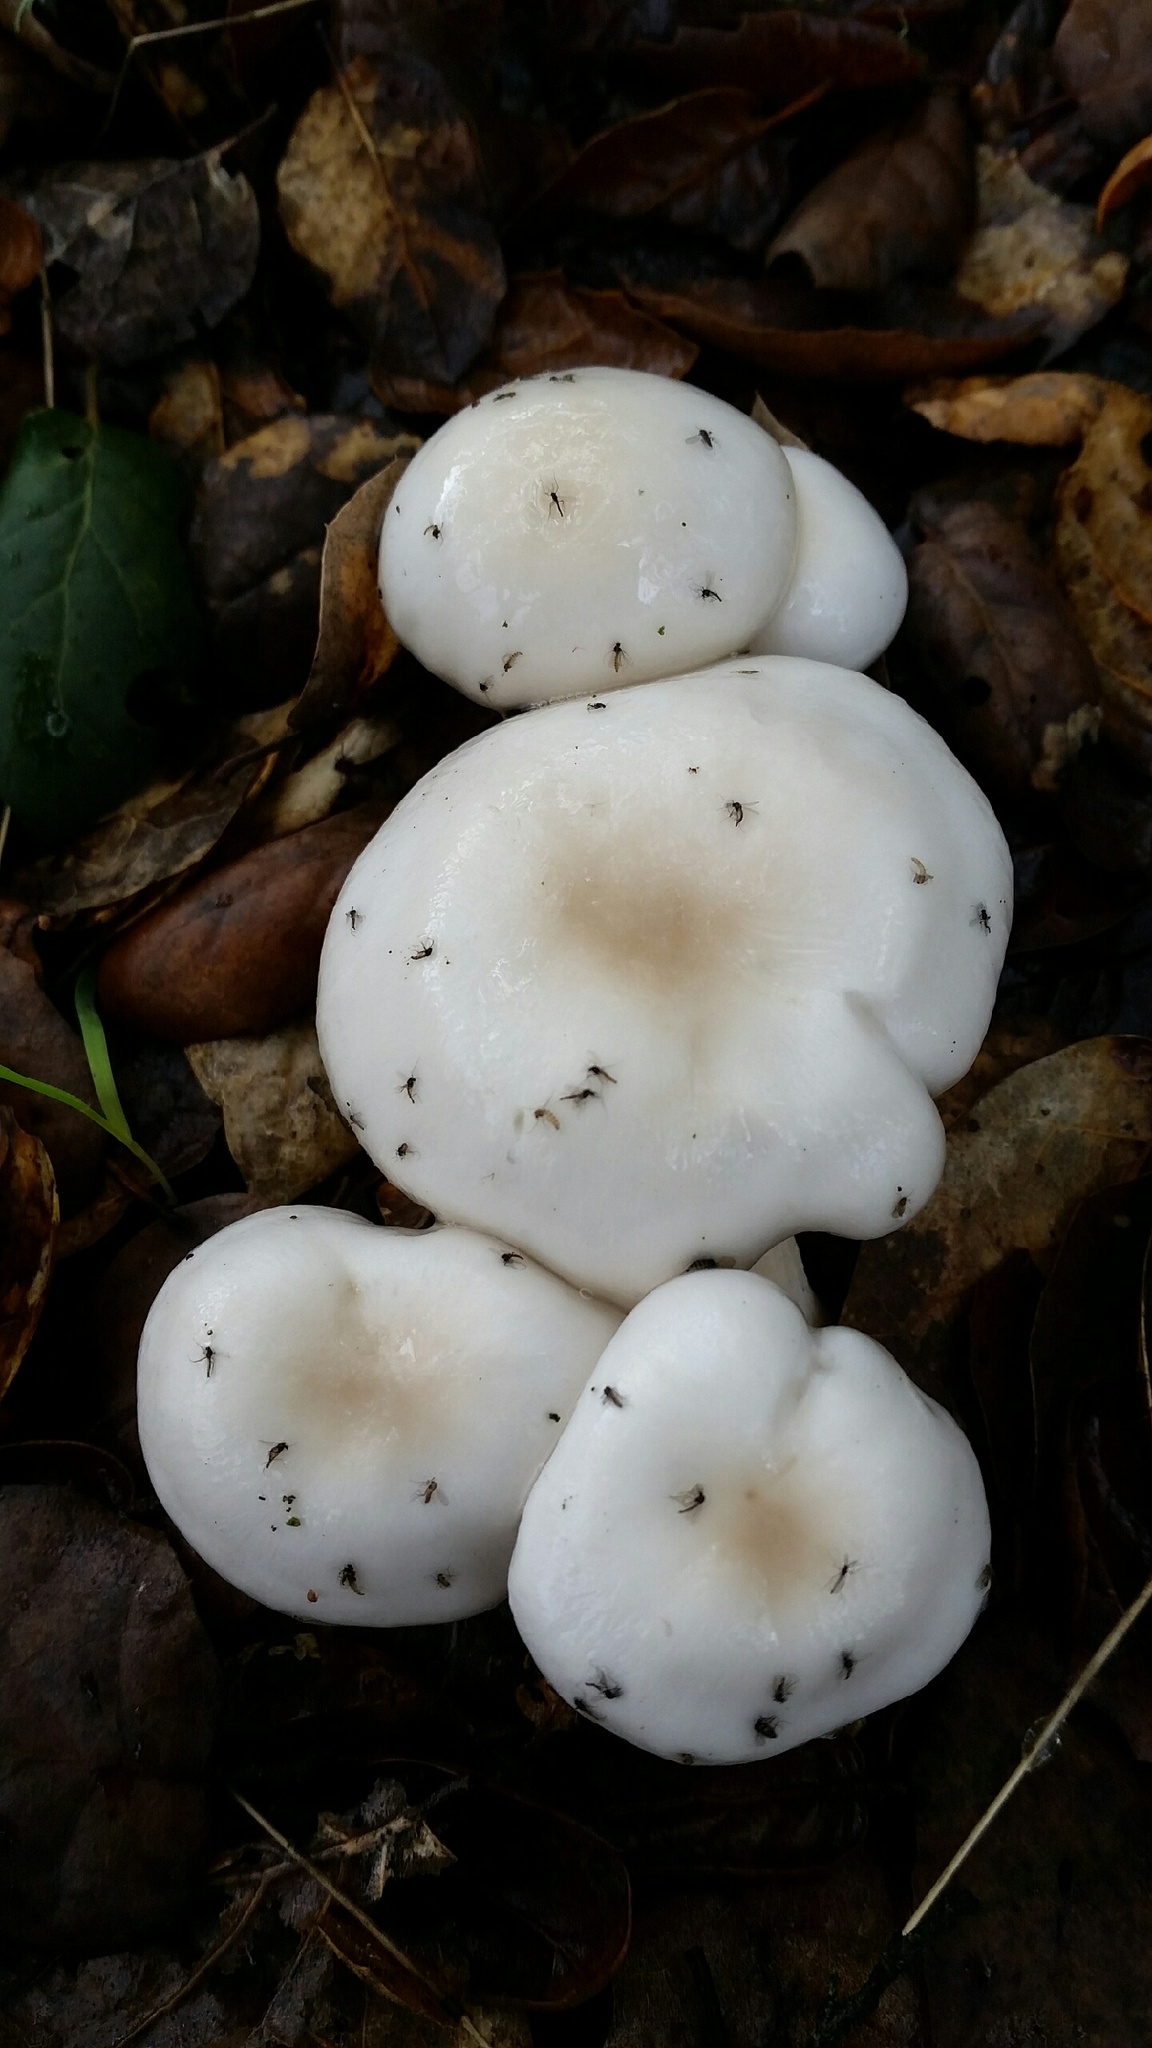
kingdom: Fungi
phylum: Basidiomycota
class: Agaricomycetes
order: Agaricales
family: Hygrophoraceae
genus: Hygrophorus
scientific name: Hygrophorus eburneus
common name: Ivory wax-cap
